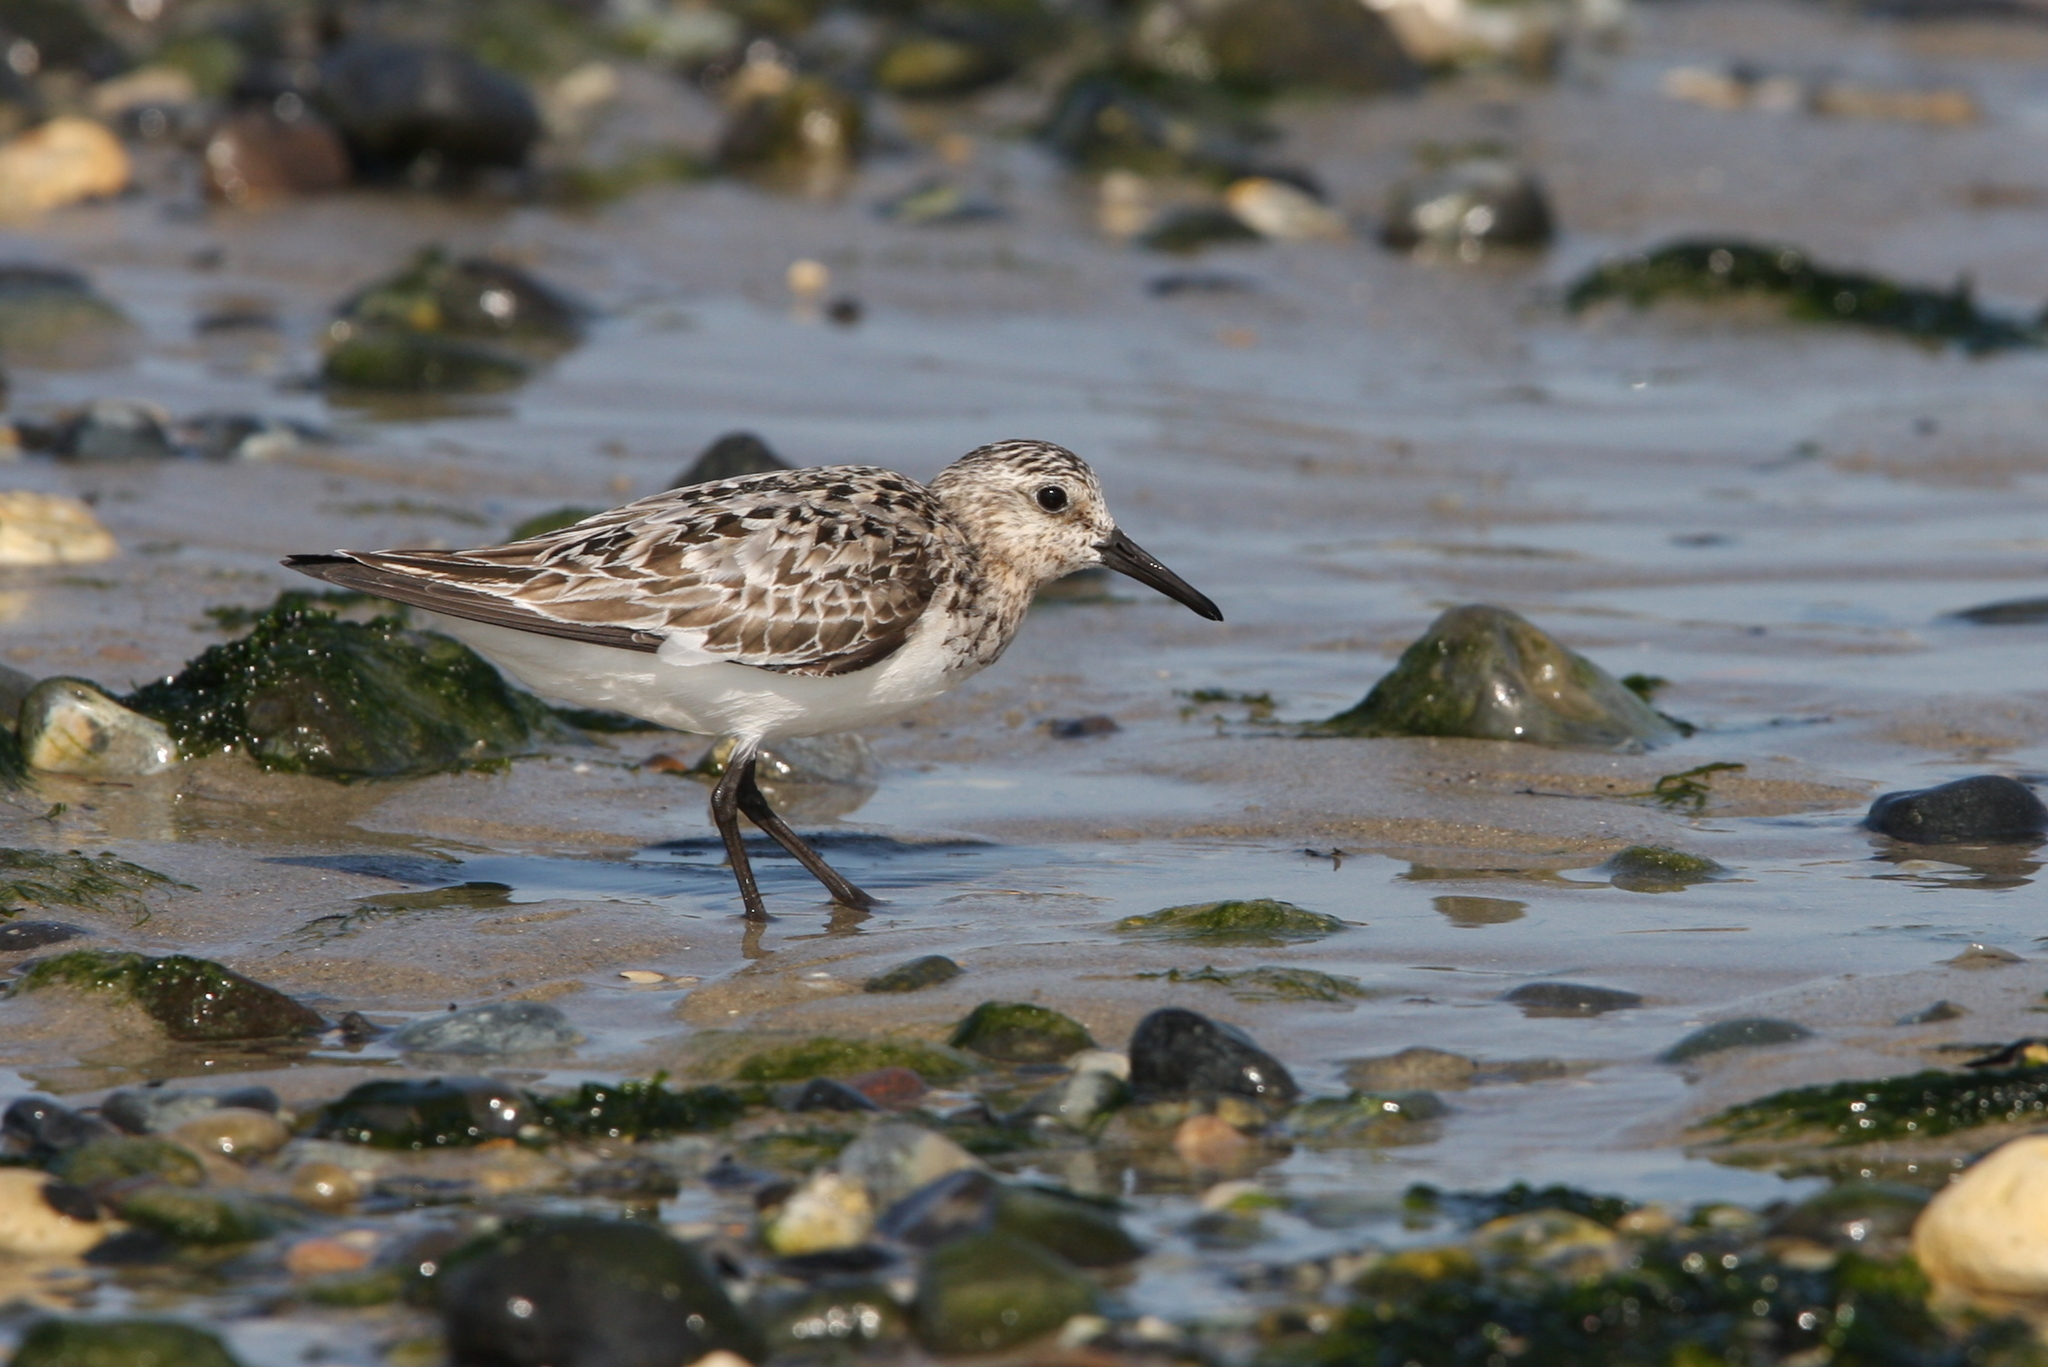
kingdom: Animalia
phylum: Chordata
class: Aves
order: Charadriiformes
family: Scolopacidae
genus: Calidris
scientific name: Calidris alba
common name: Sanderling
